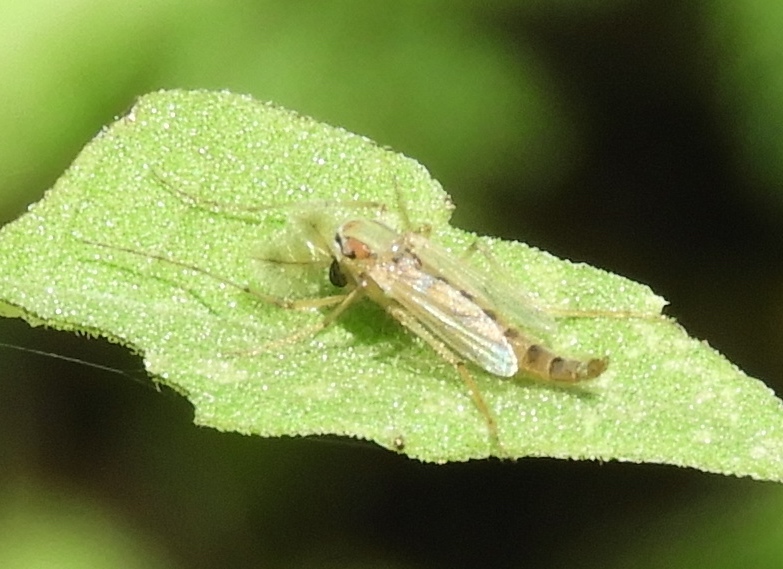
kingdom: Animalia
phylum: Arthropoda
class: Insecta
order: Diptera
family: Chironomidae
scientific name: Chironomidae
